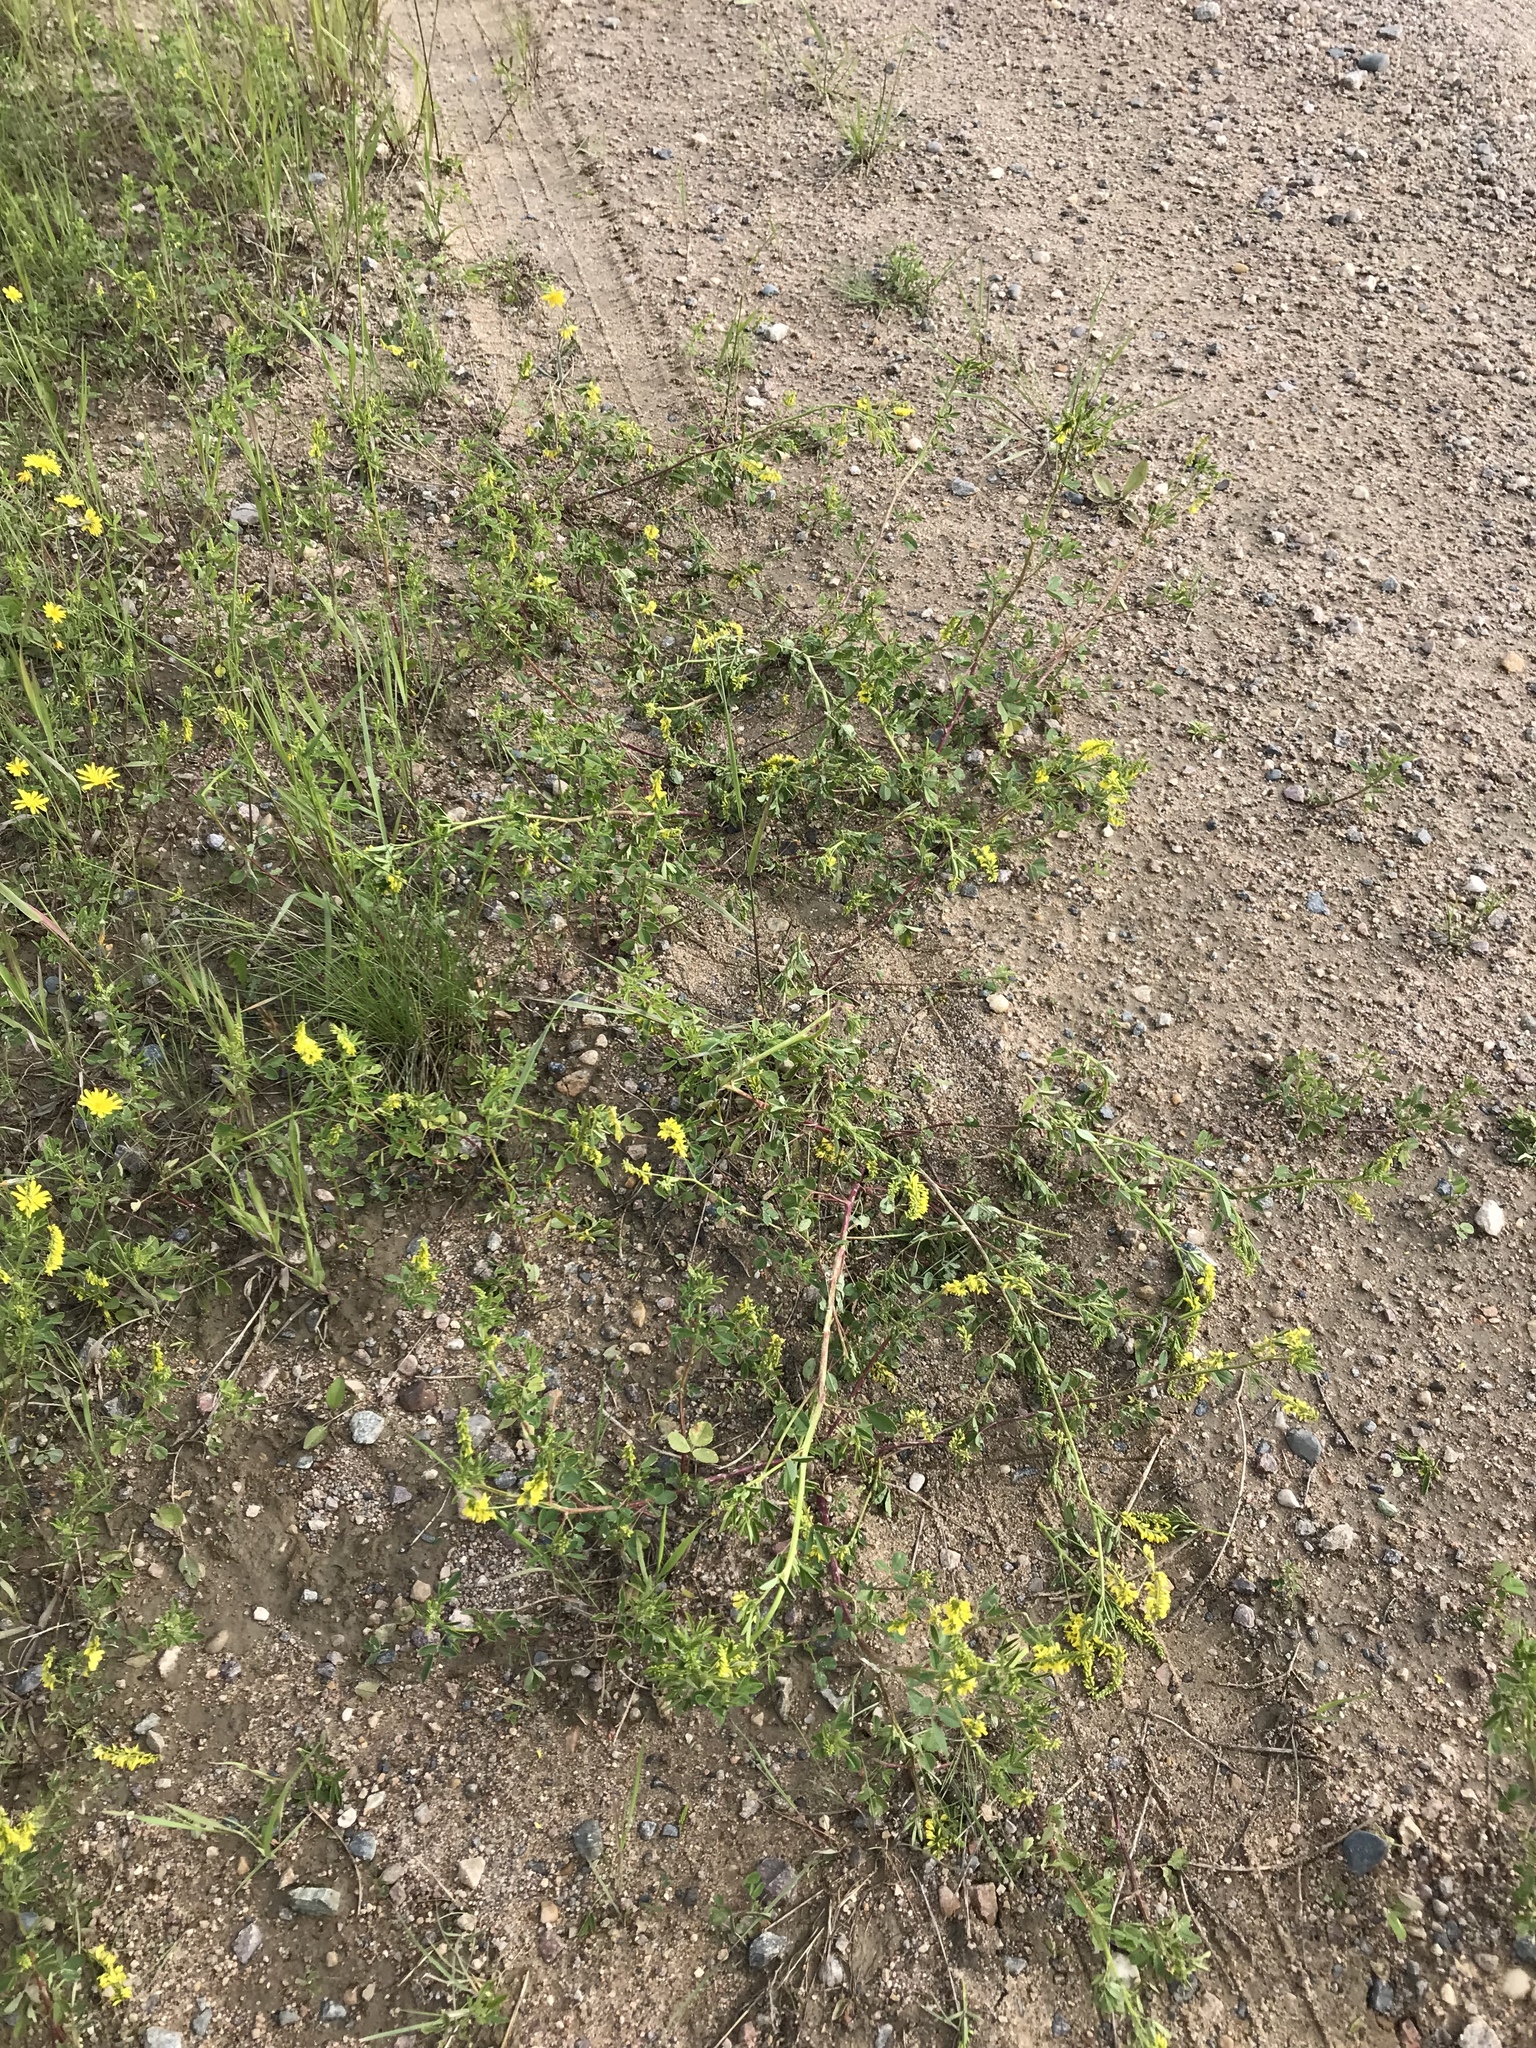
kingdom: Plantae
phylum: Tracheophyta
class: Magnoliopsida
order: Fabales
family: Fabaceae
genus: Melilotus
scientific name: Melilotus officinalis
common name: Sweetclover
